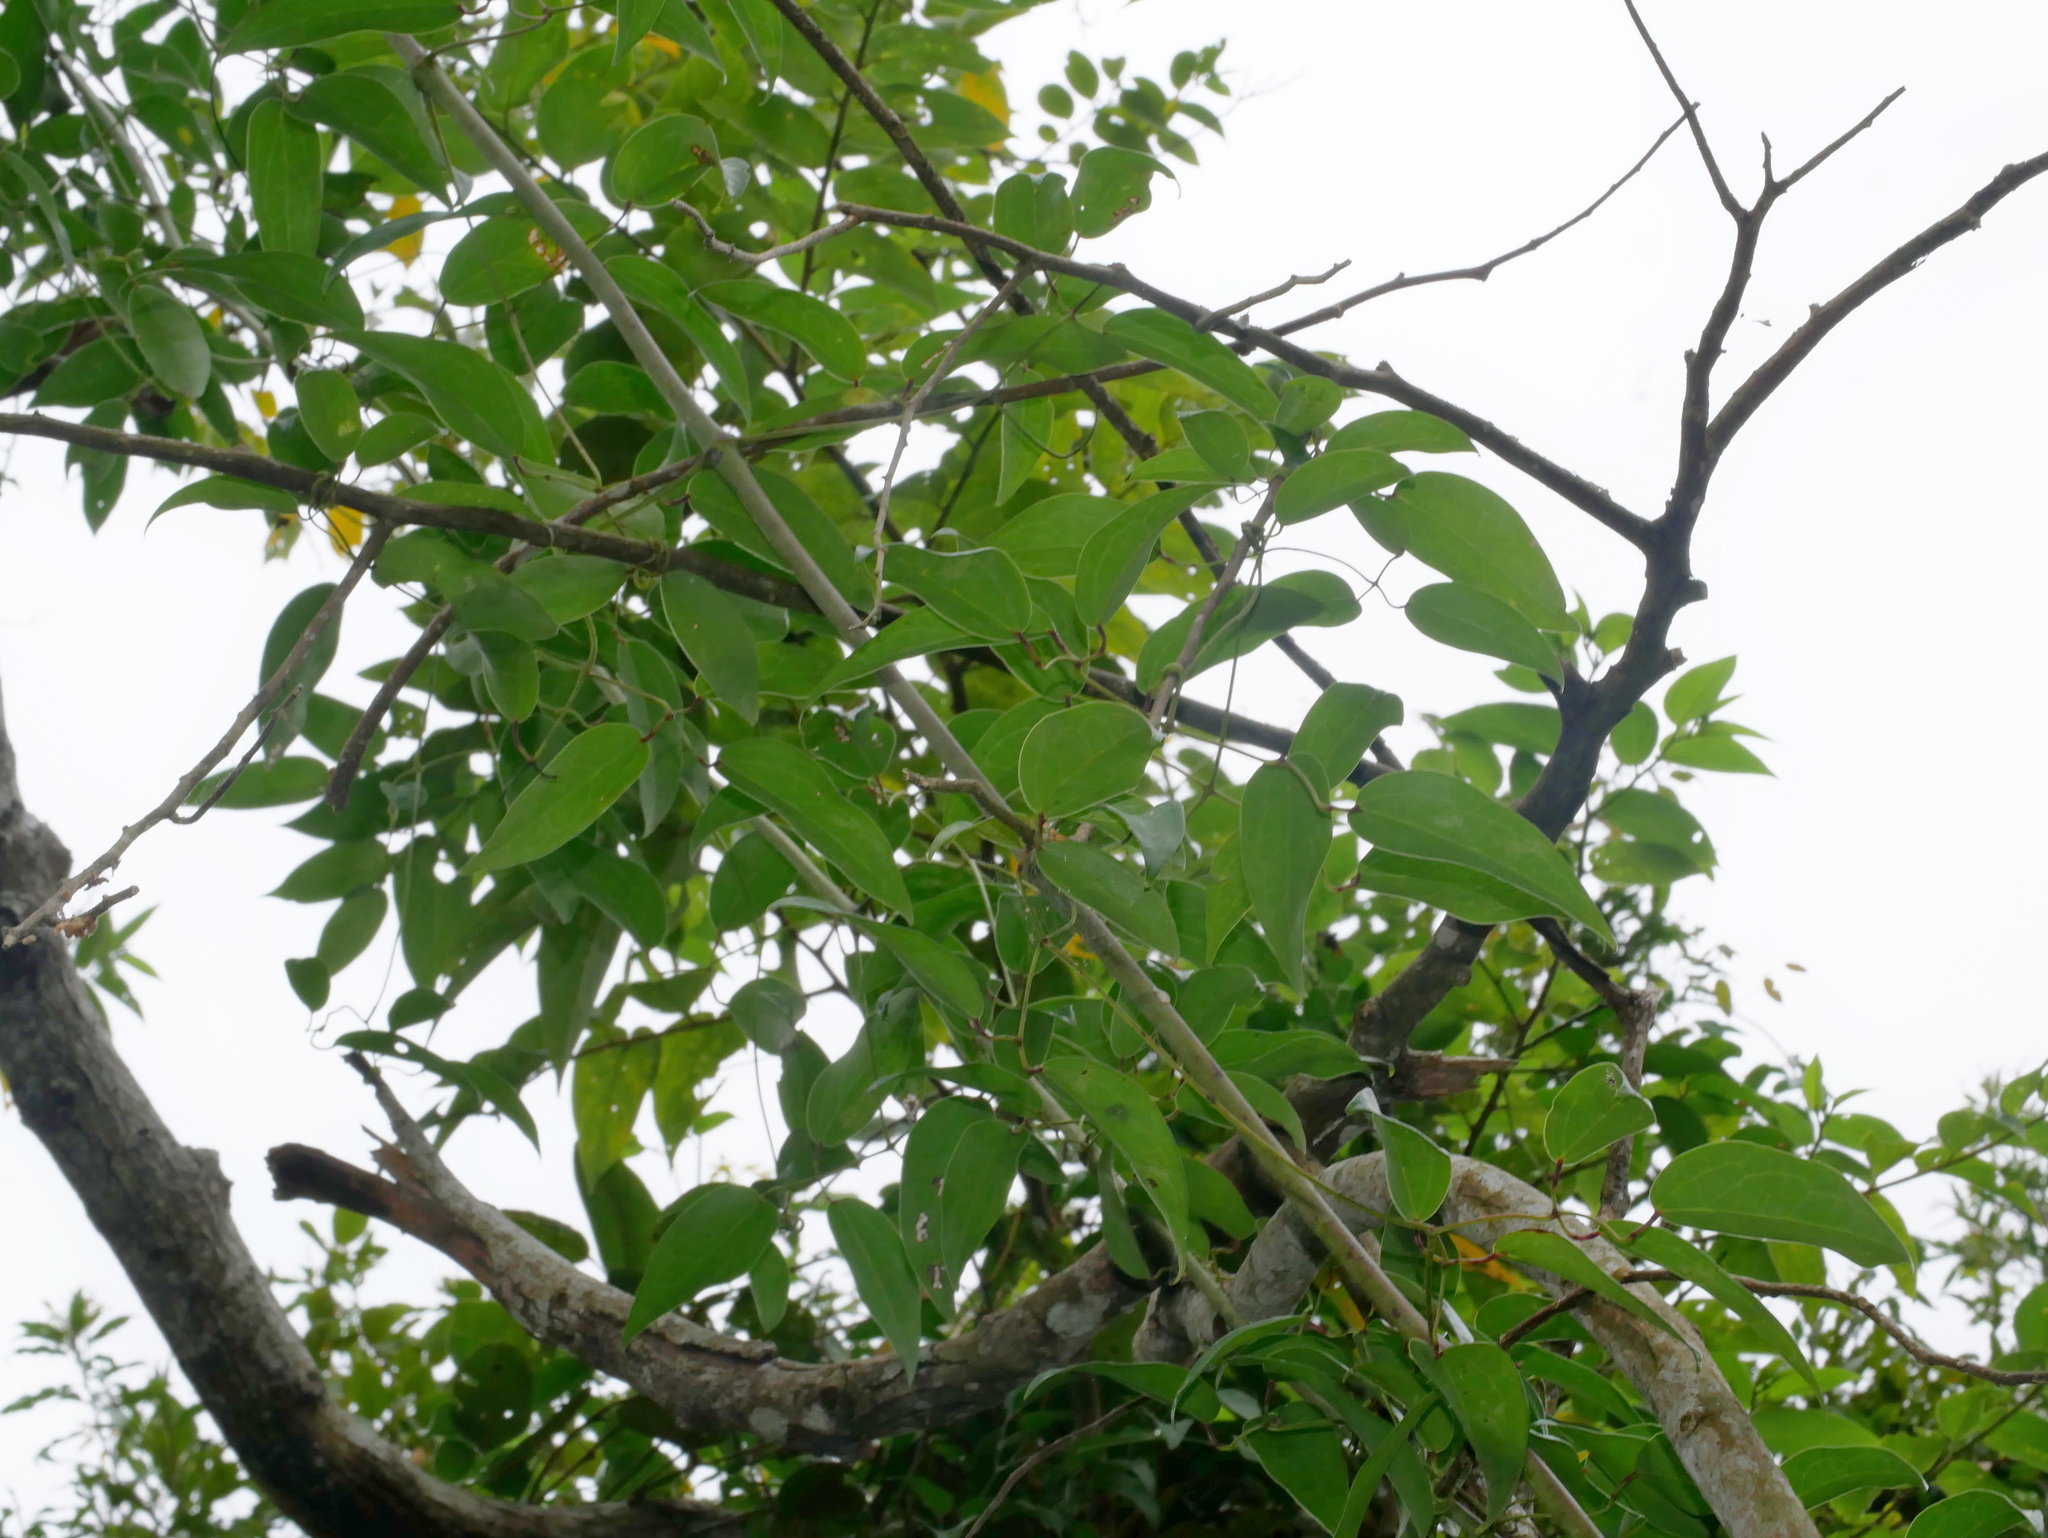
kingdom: Plantae
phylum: Tracheophyta
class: Magnoliopsida
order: Ranunculales
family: Ranunculaceae
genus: Clematis
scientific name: Clematis meyeniana
